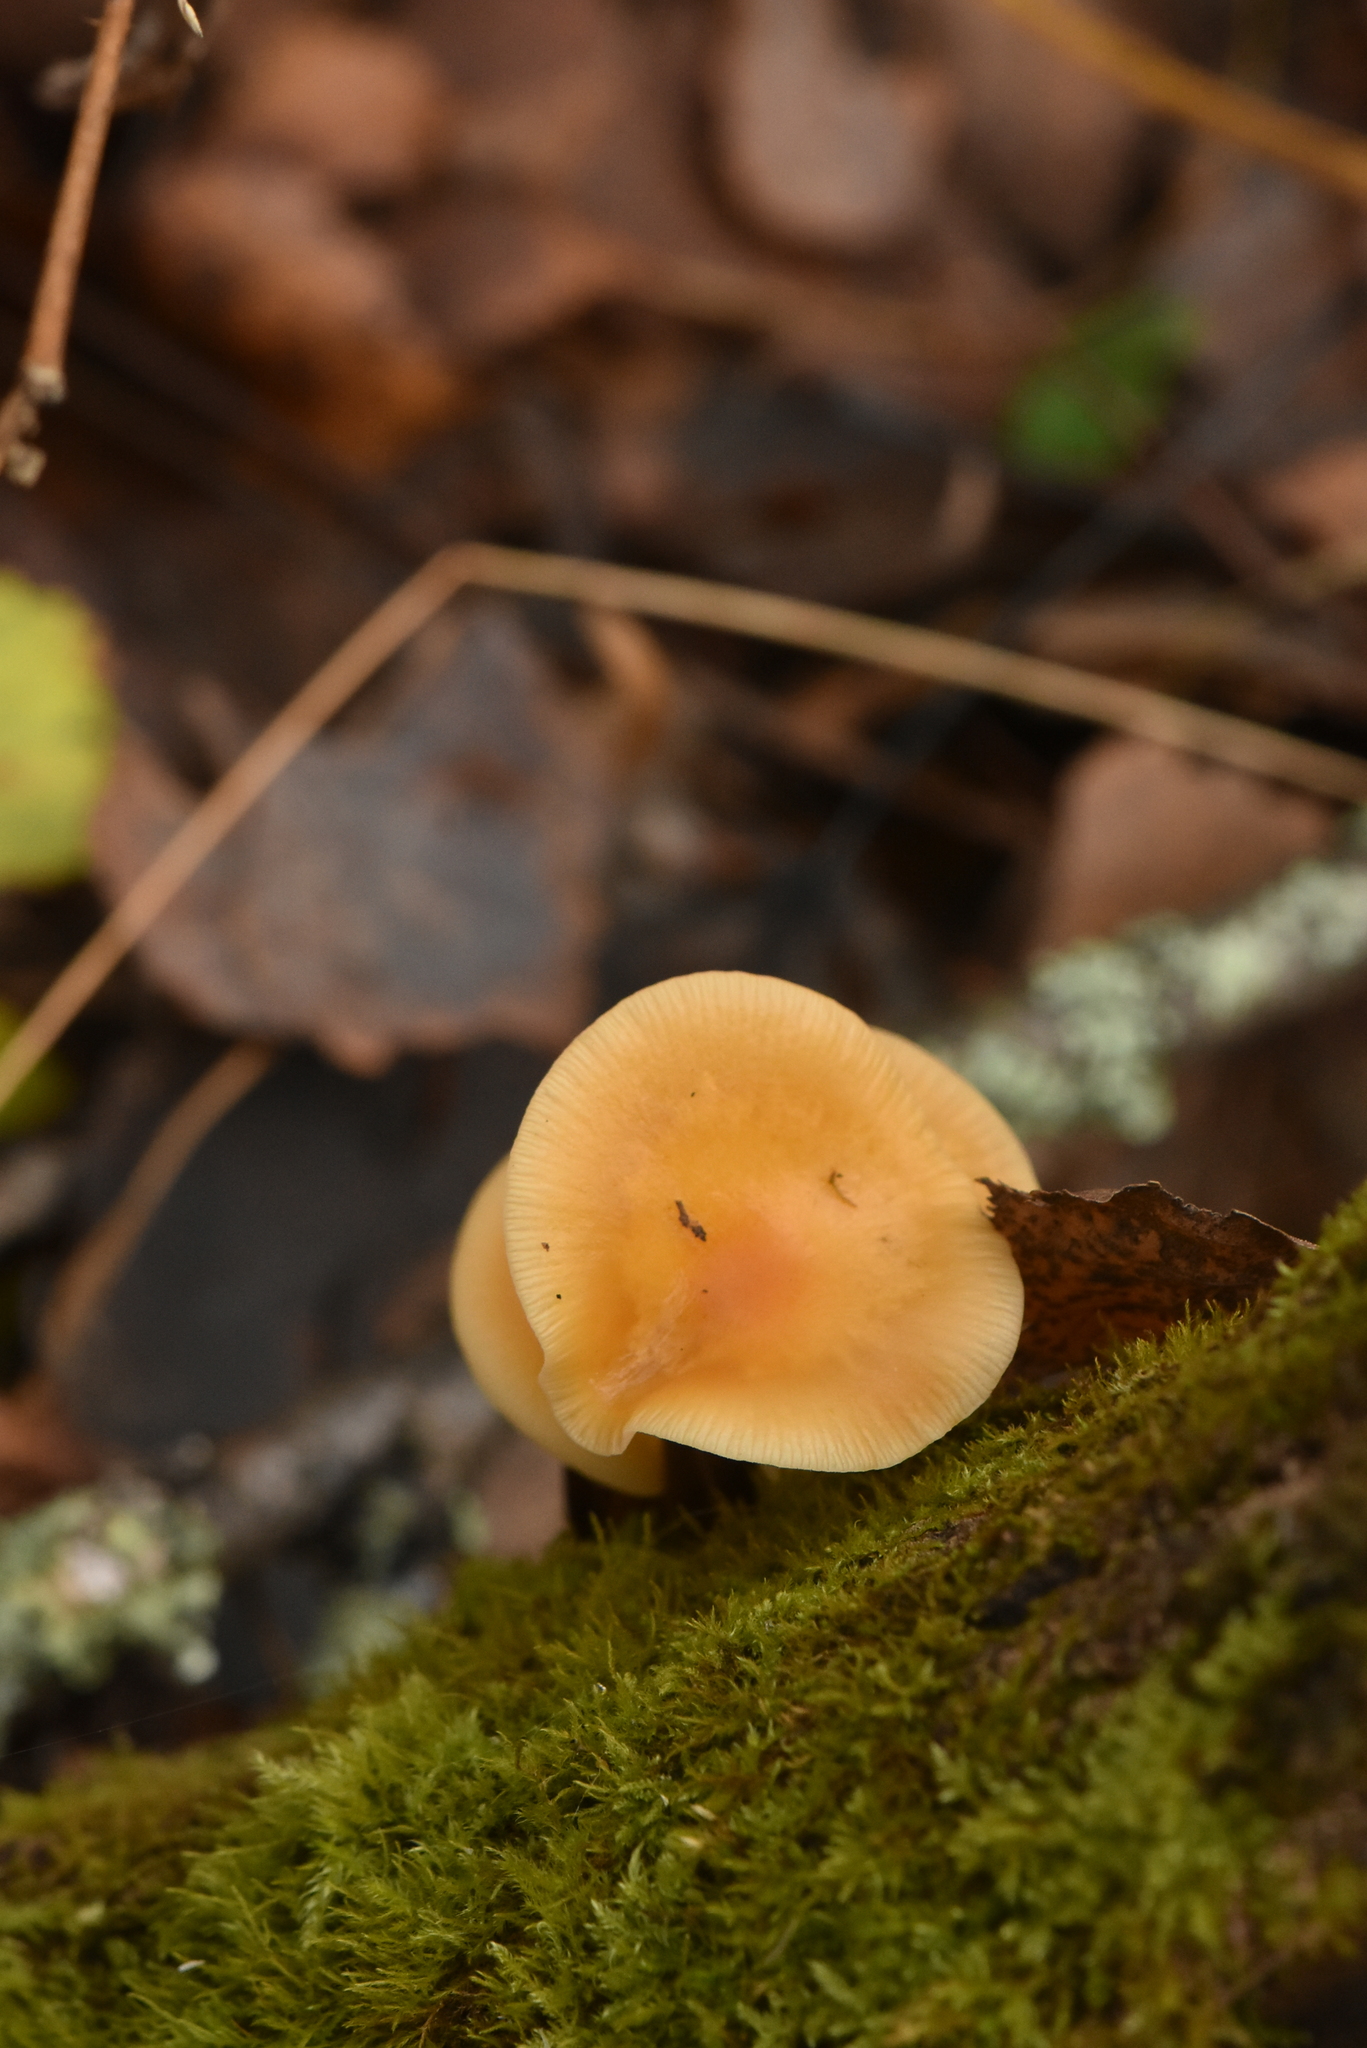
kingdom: Fungi
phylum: Basidiomycota
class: Agaricomycetes
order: Agaricales
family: Physalacriaceae
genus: Flammulina
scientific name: Flammulina
